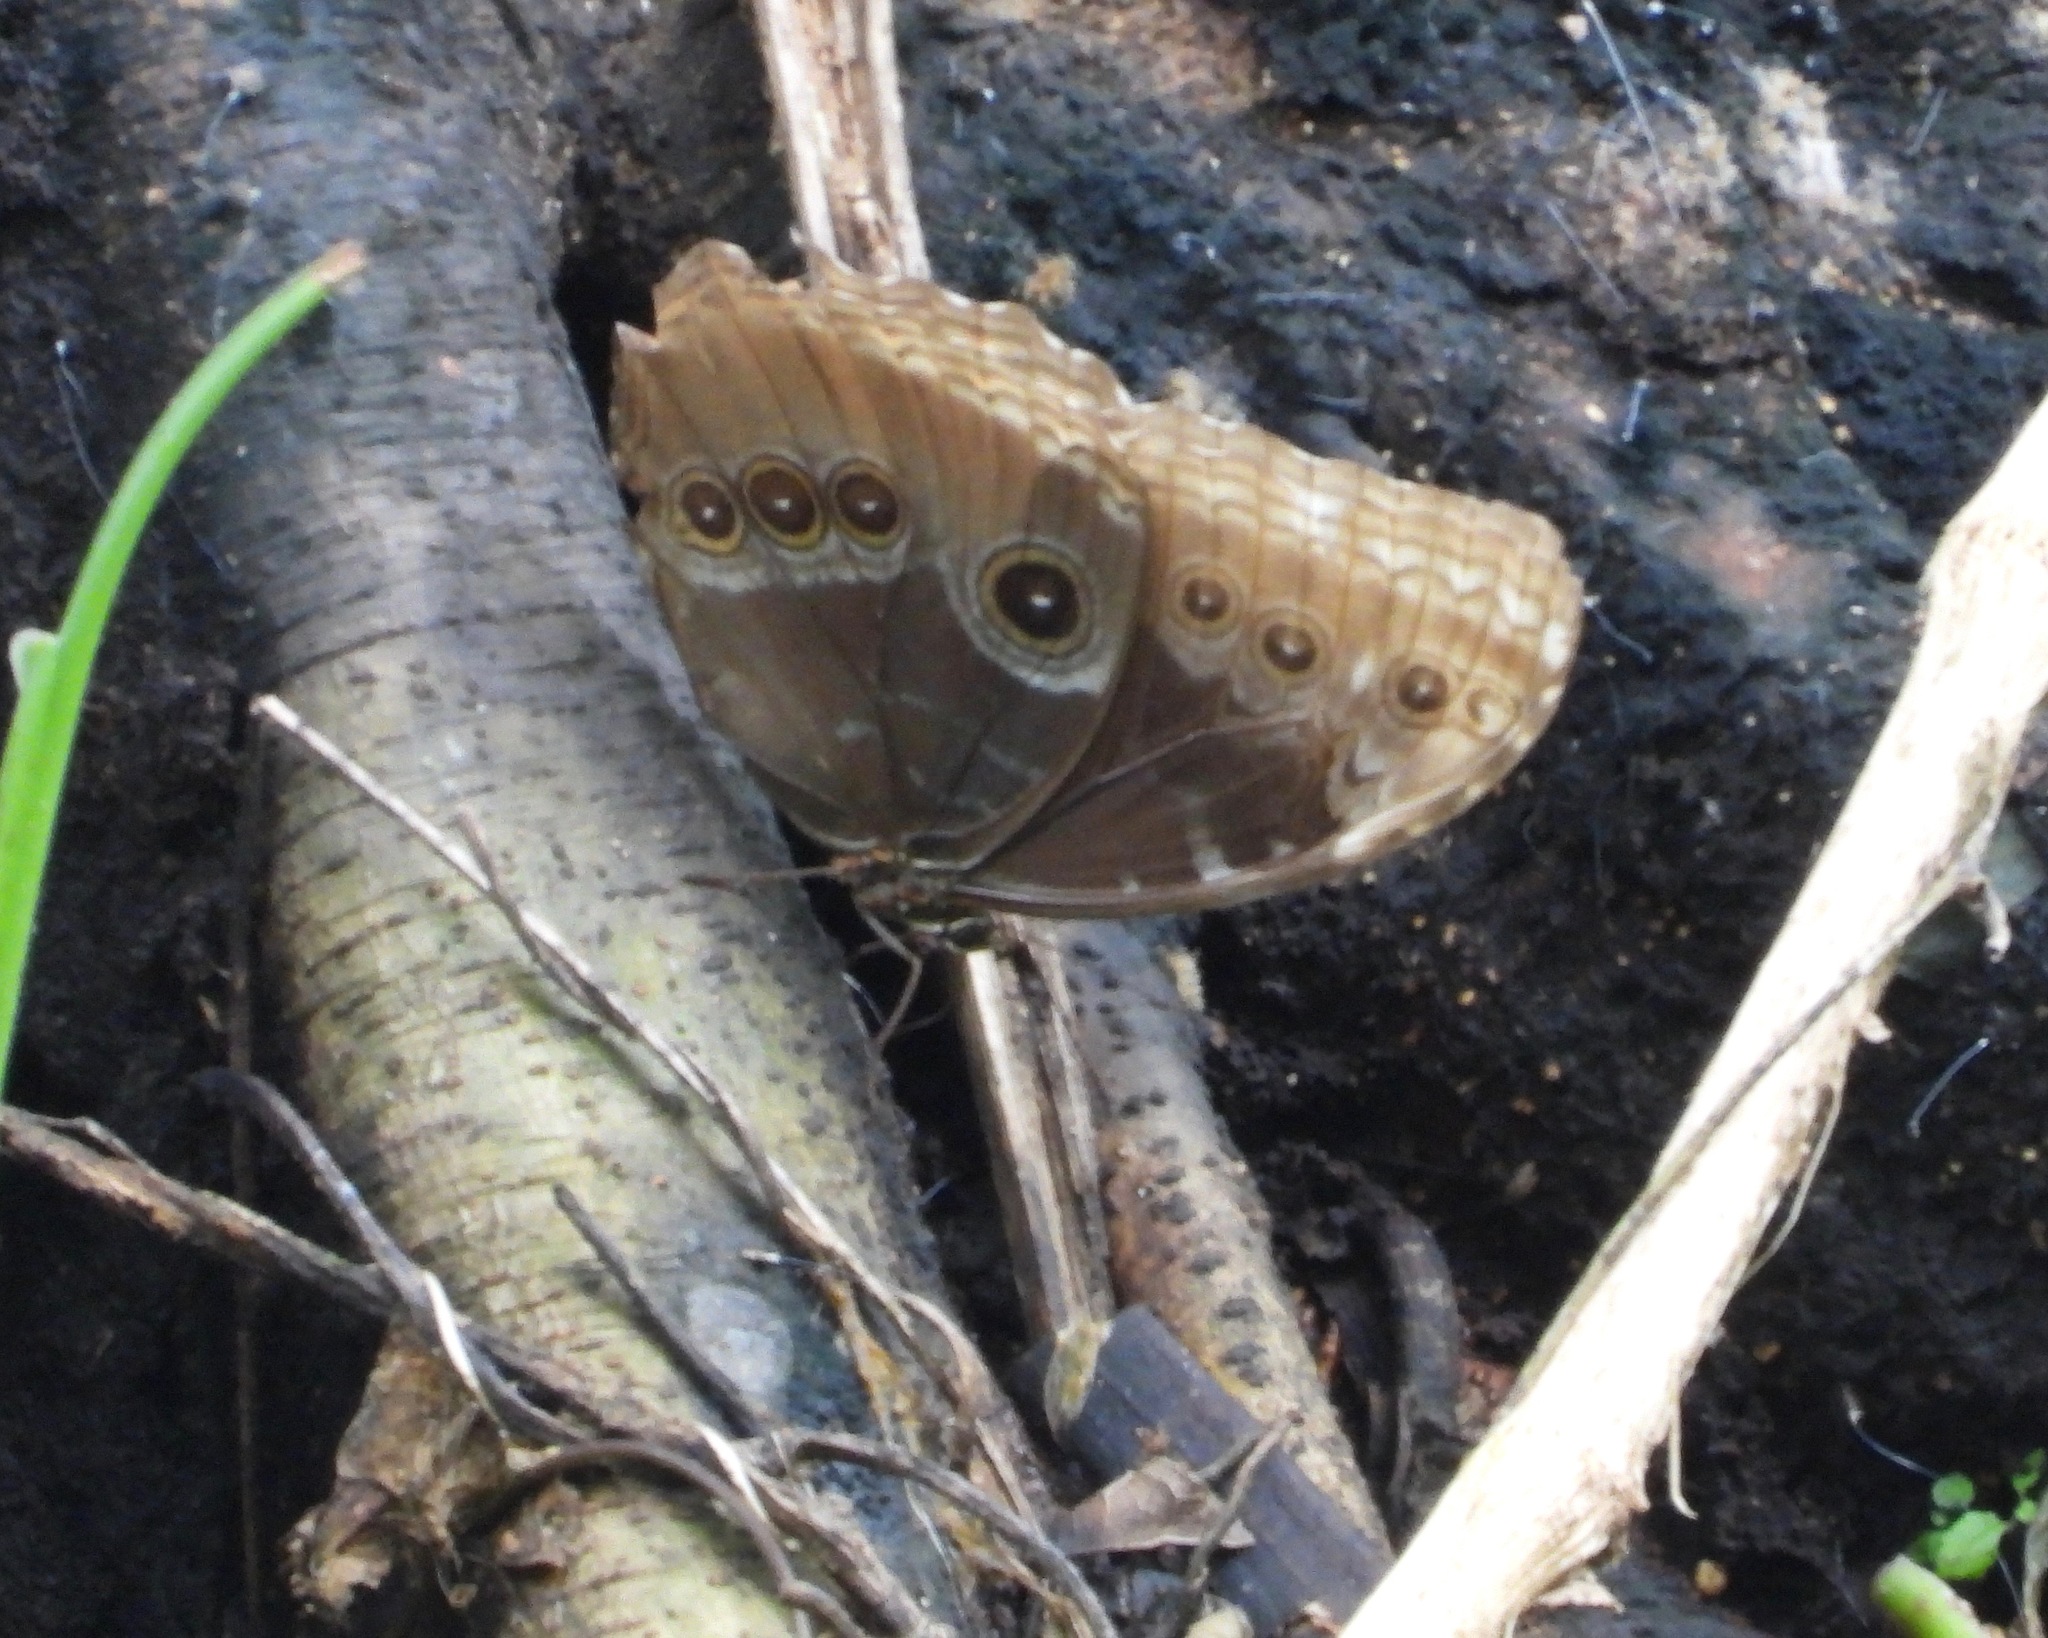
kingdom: Animalia
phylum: Arthropoda
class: Insecta
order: Lepidoptera
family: Nymphalidae
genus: Morpho
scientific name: Morpho helenor
